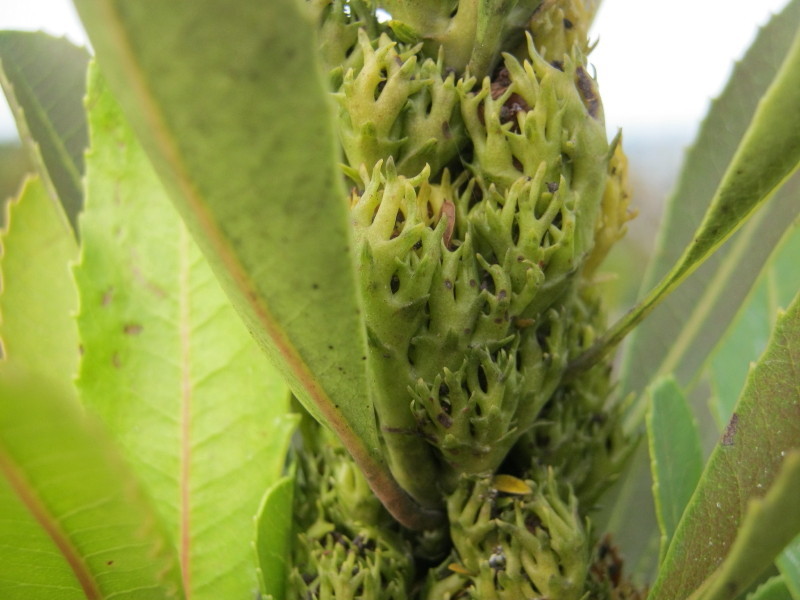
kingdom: Plantae
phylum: Tracheophyta
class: Magnoliopsida
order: Sapindales
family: Anacardiaceae
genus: Laurophyllus
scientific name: Laurophyllus capensis
